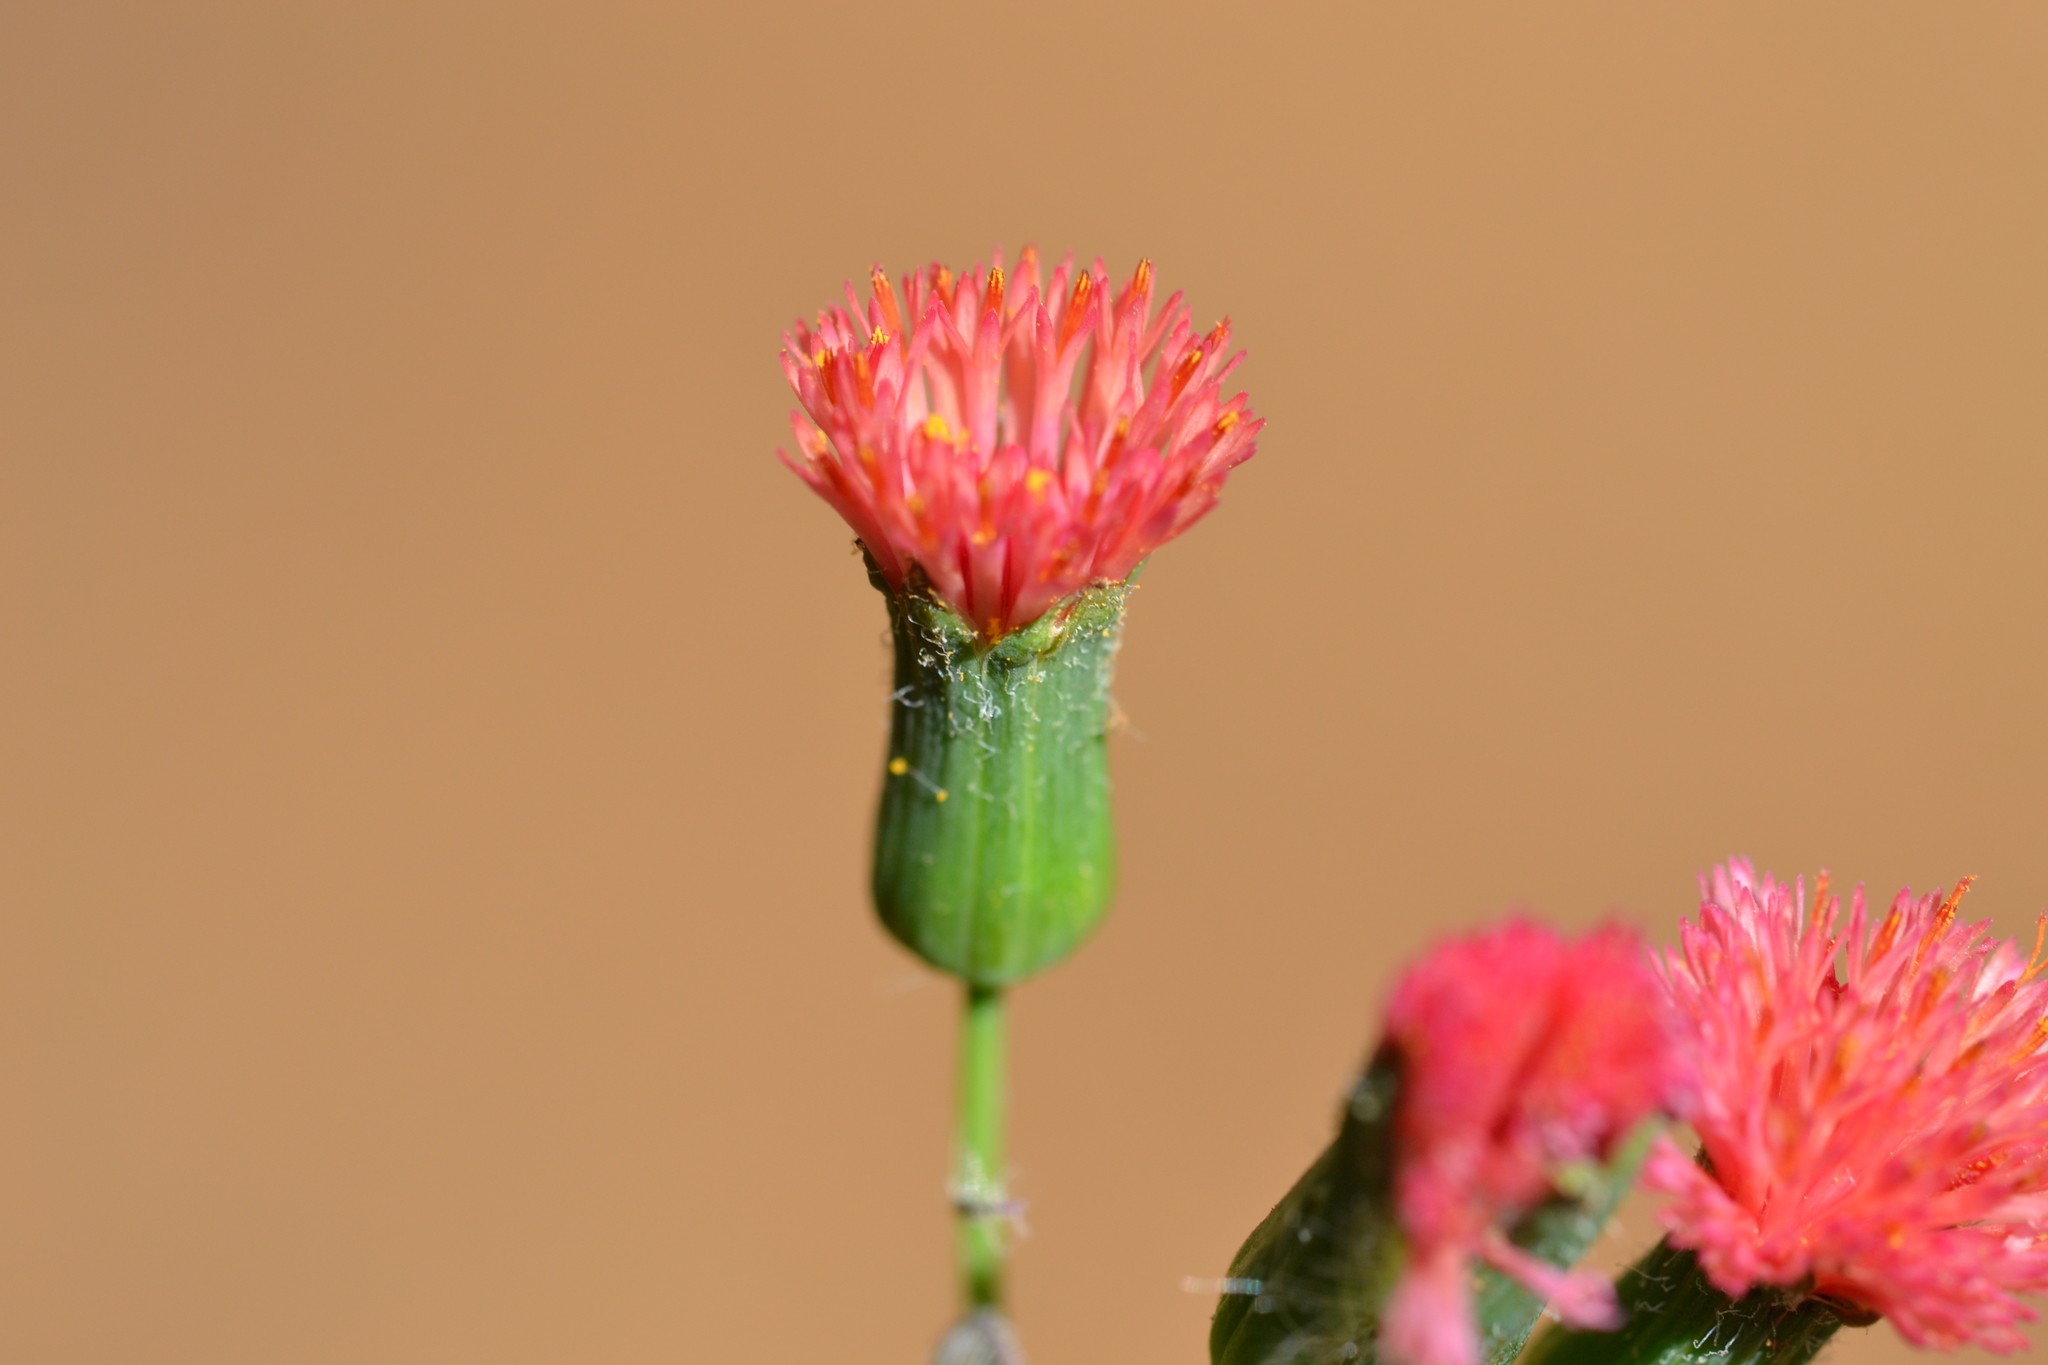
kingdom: Plantae
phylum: Tracheophyta
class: Magnoliopsida
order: Asterales
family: Asteraceae
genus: Emilia
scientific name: Emilia fosbergii
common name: Florida tasselflower
